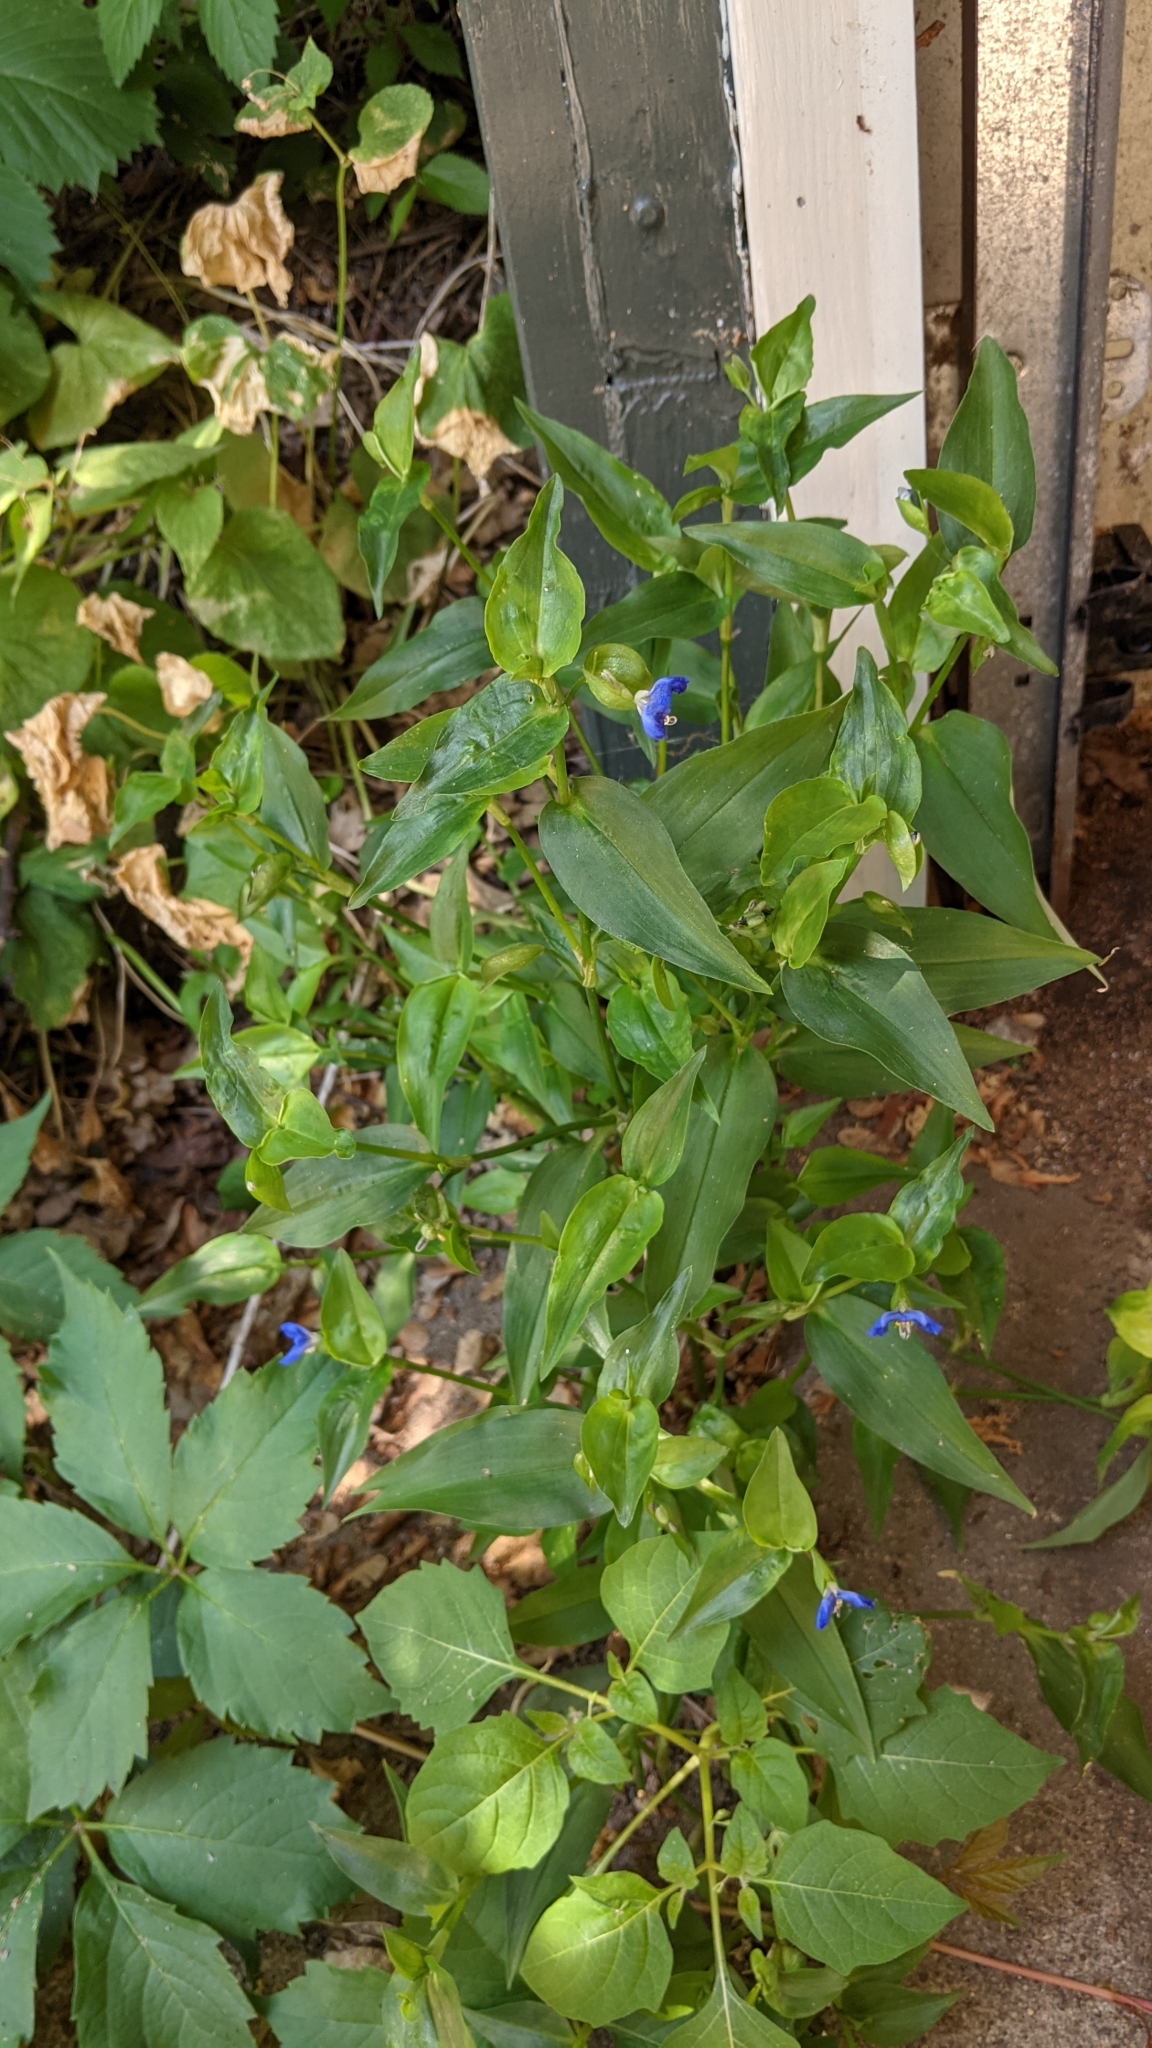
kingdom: Plantae
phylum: Tracheophyta
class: Liliopsida
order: Commelinales
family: Commelinaceae
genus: Commelina
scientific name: Commelina communis
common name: Asiatic dayflower
